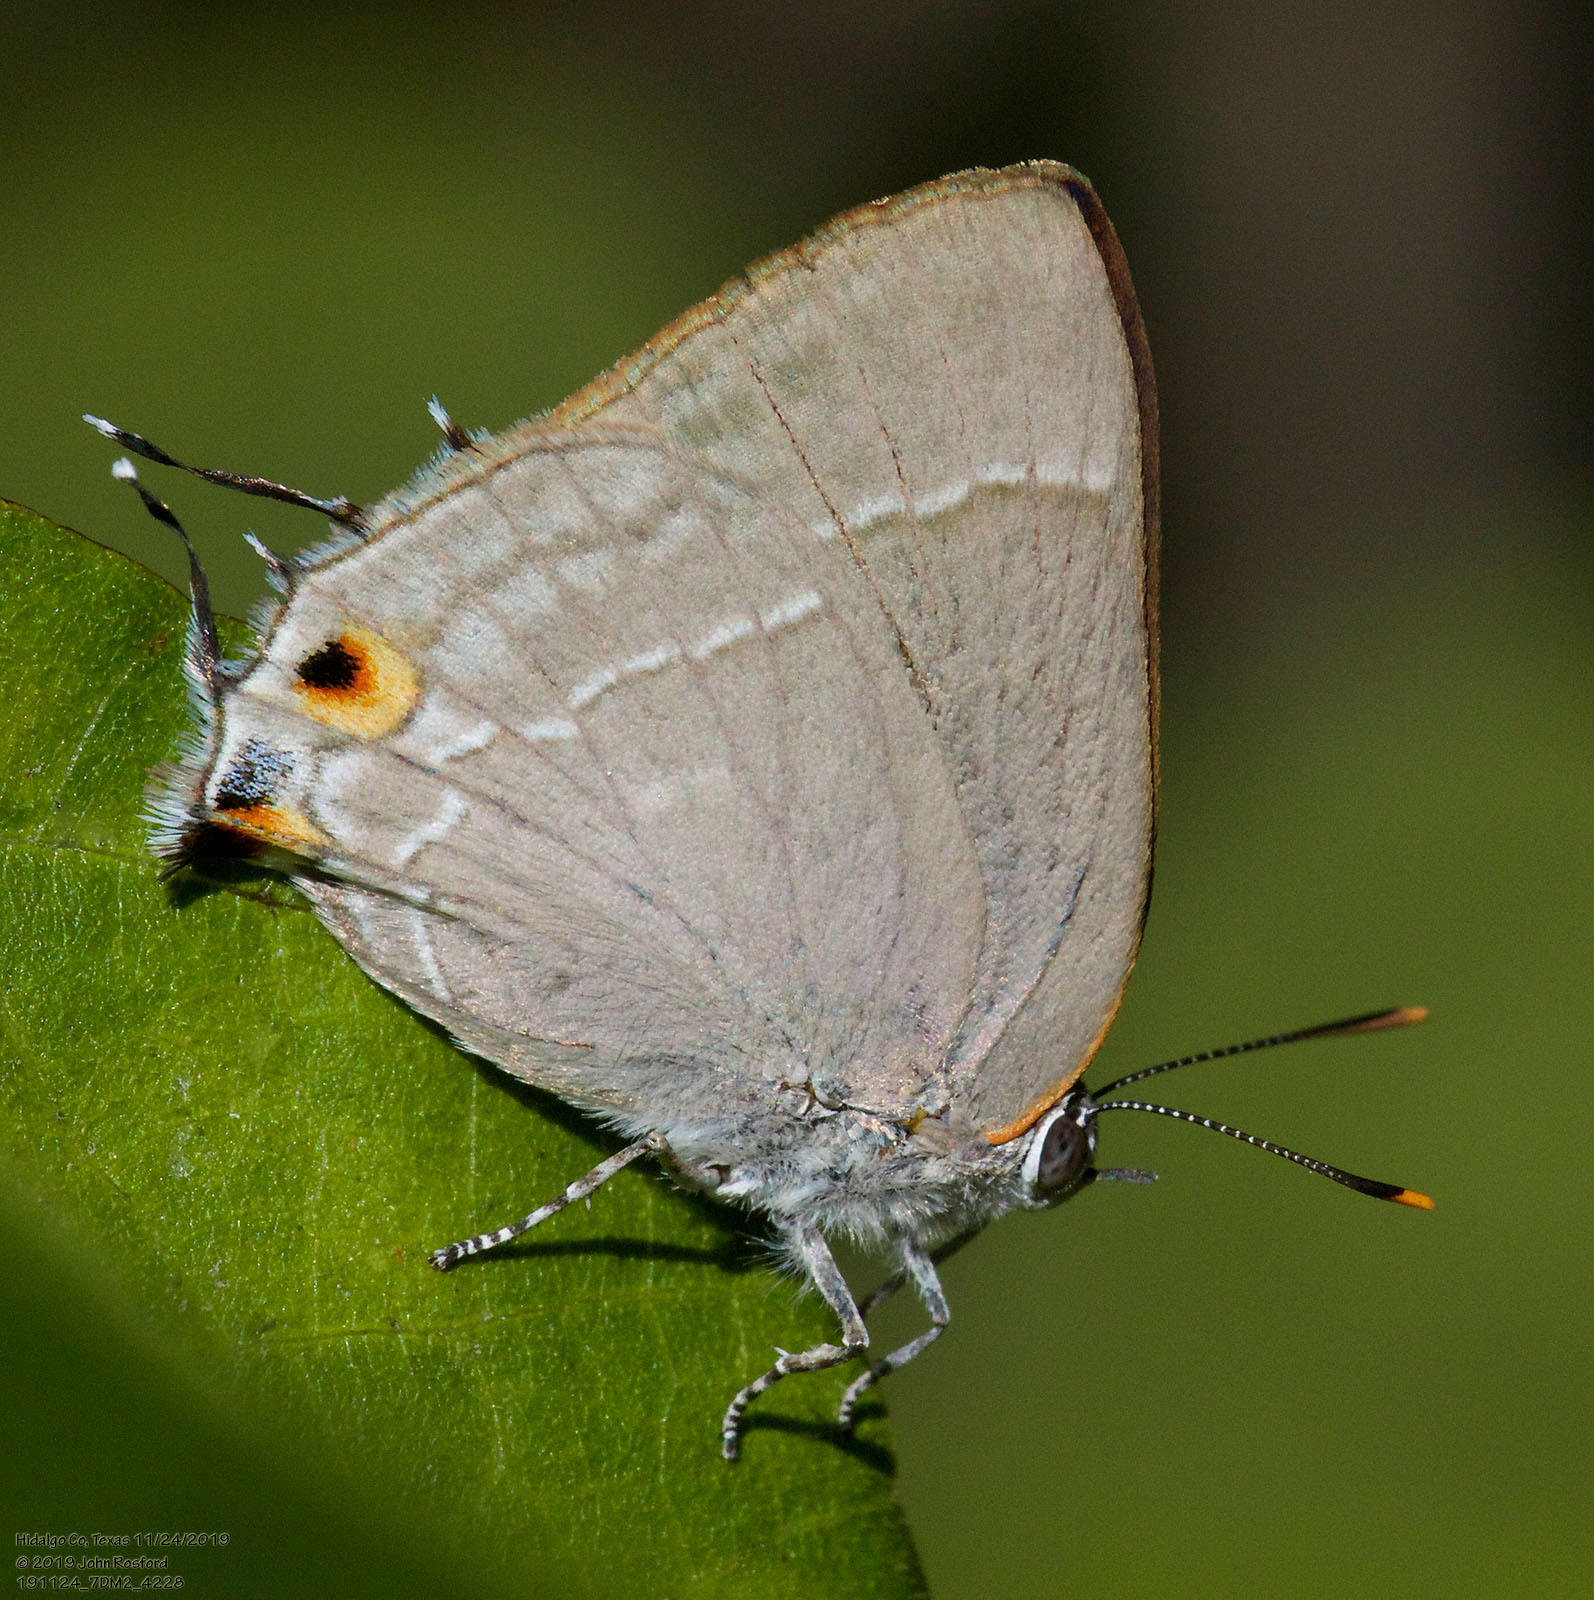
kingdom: Animalia
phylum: Arthropoda
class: Insecta
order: Lepidoptera
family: Lycaenidae
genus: Thecla
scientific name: Thecla marius
